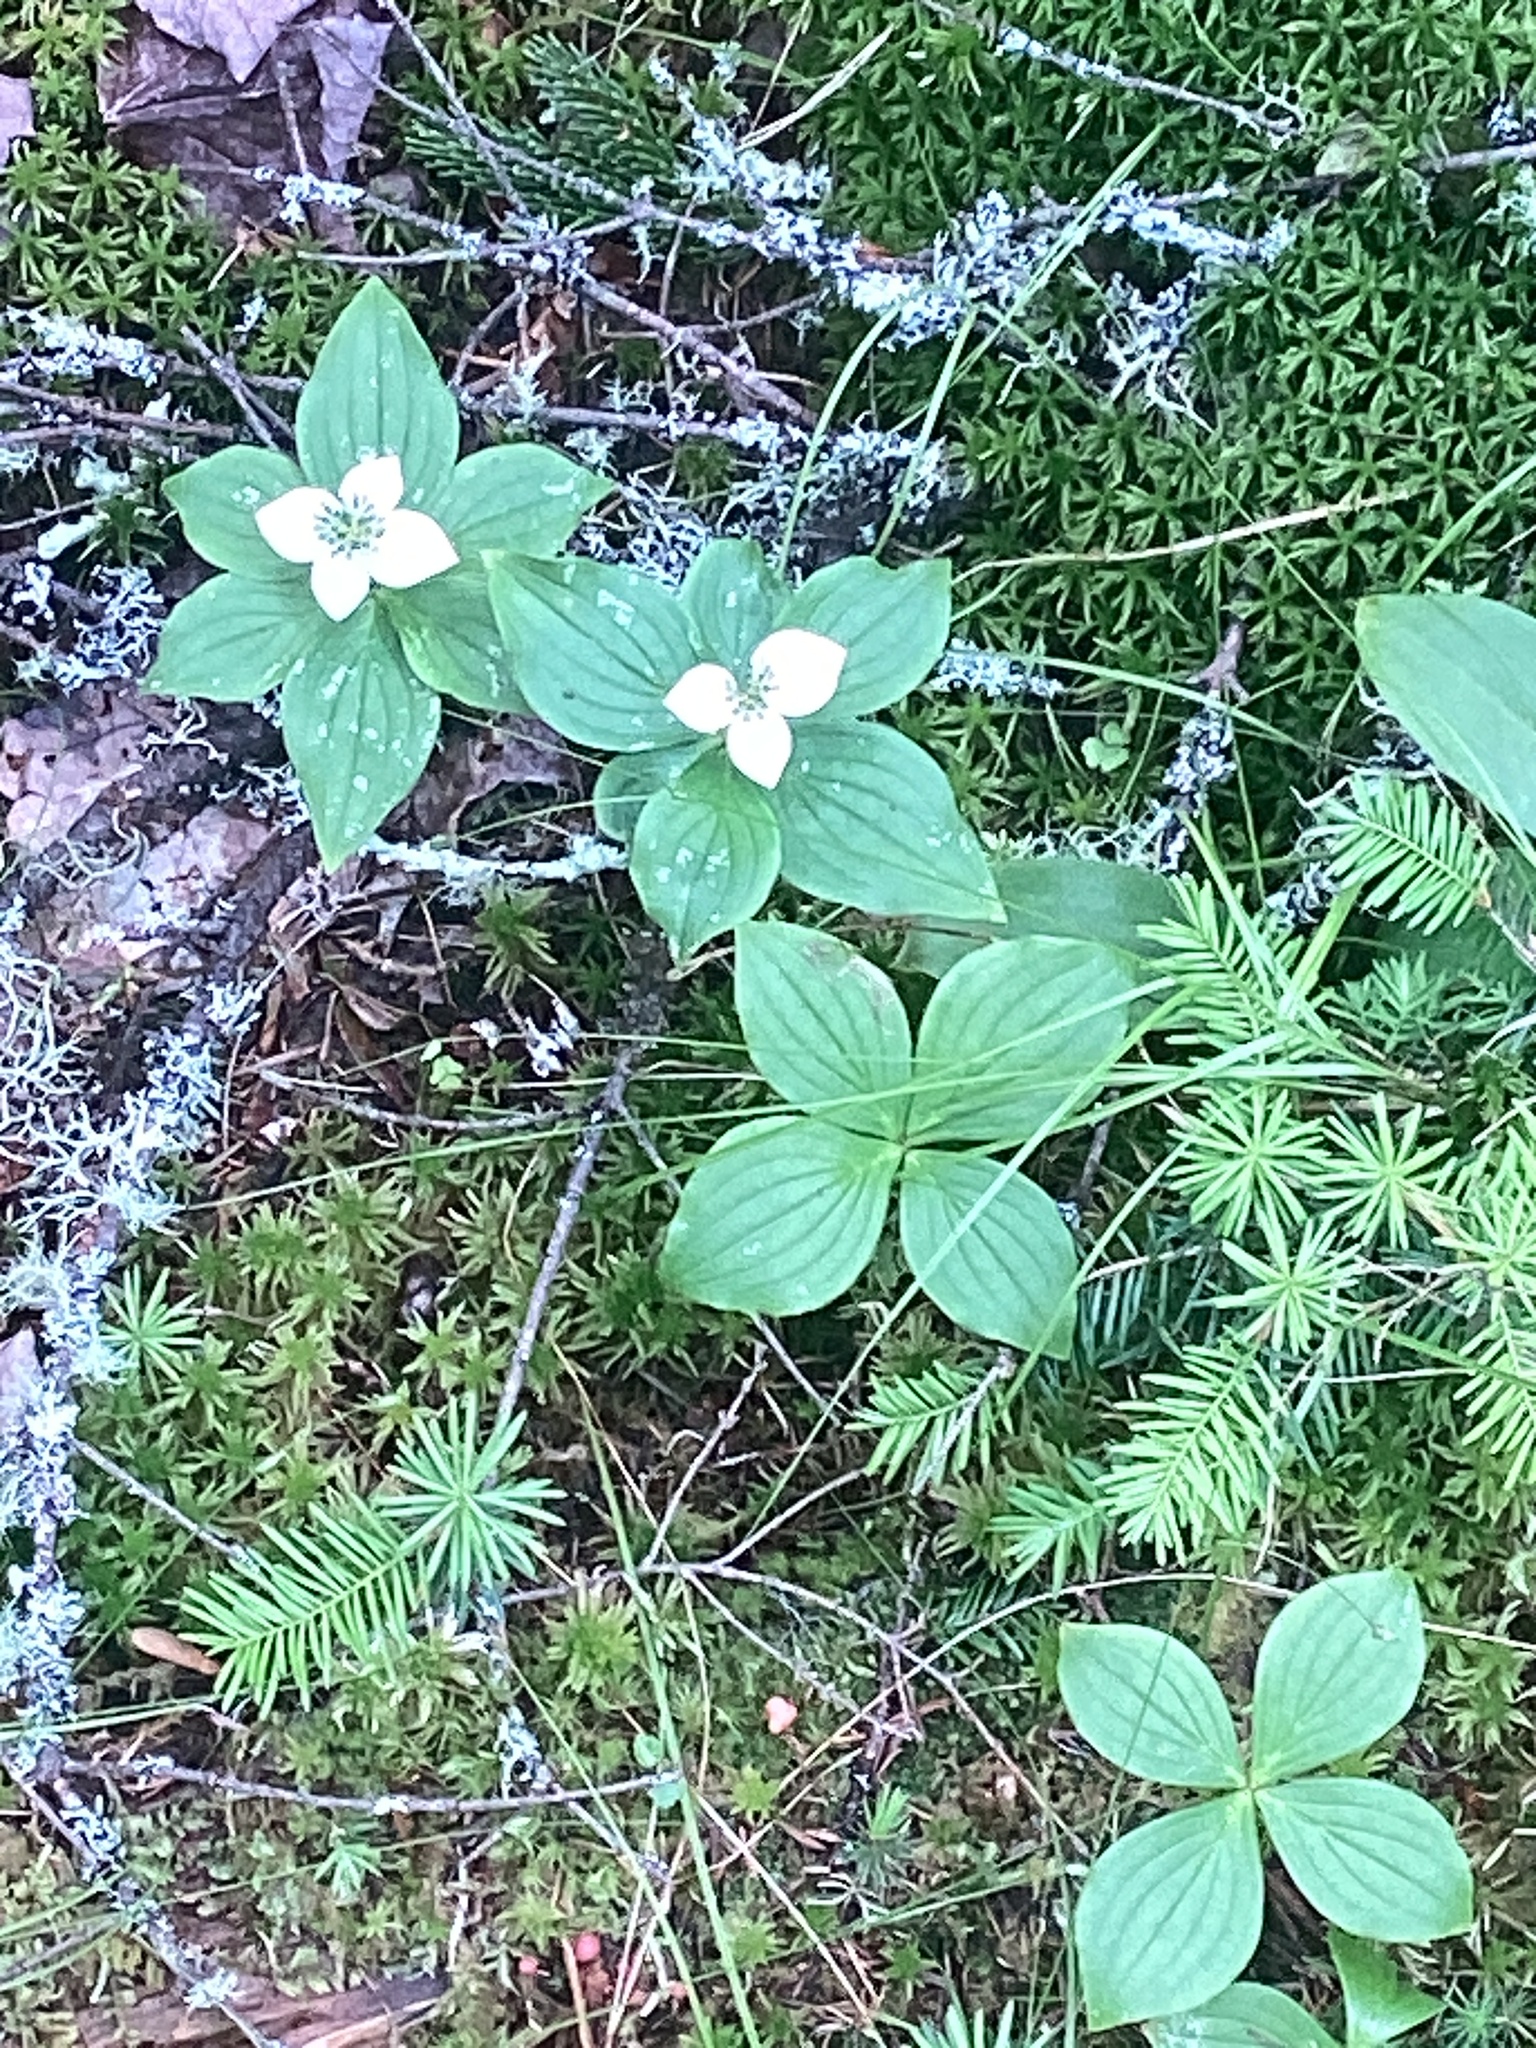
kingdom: Plantae
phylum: Tracheophyta
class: Magnoliopsida
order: Cornales
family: Cornaceae
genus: Cornus
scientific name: Cornus canadensis
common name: Creeping dogwood
